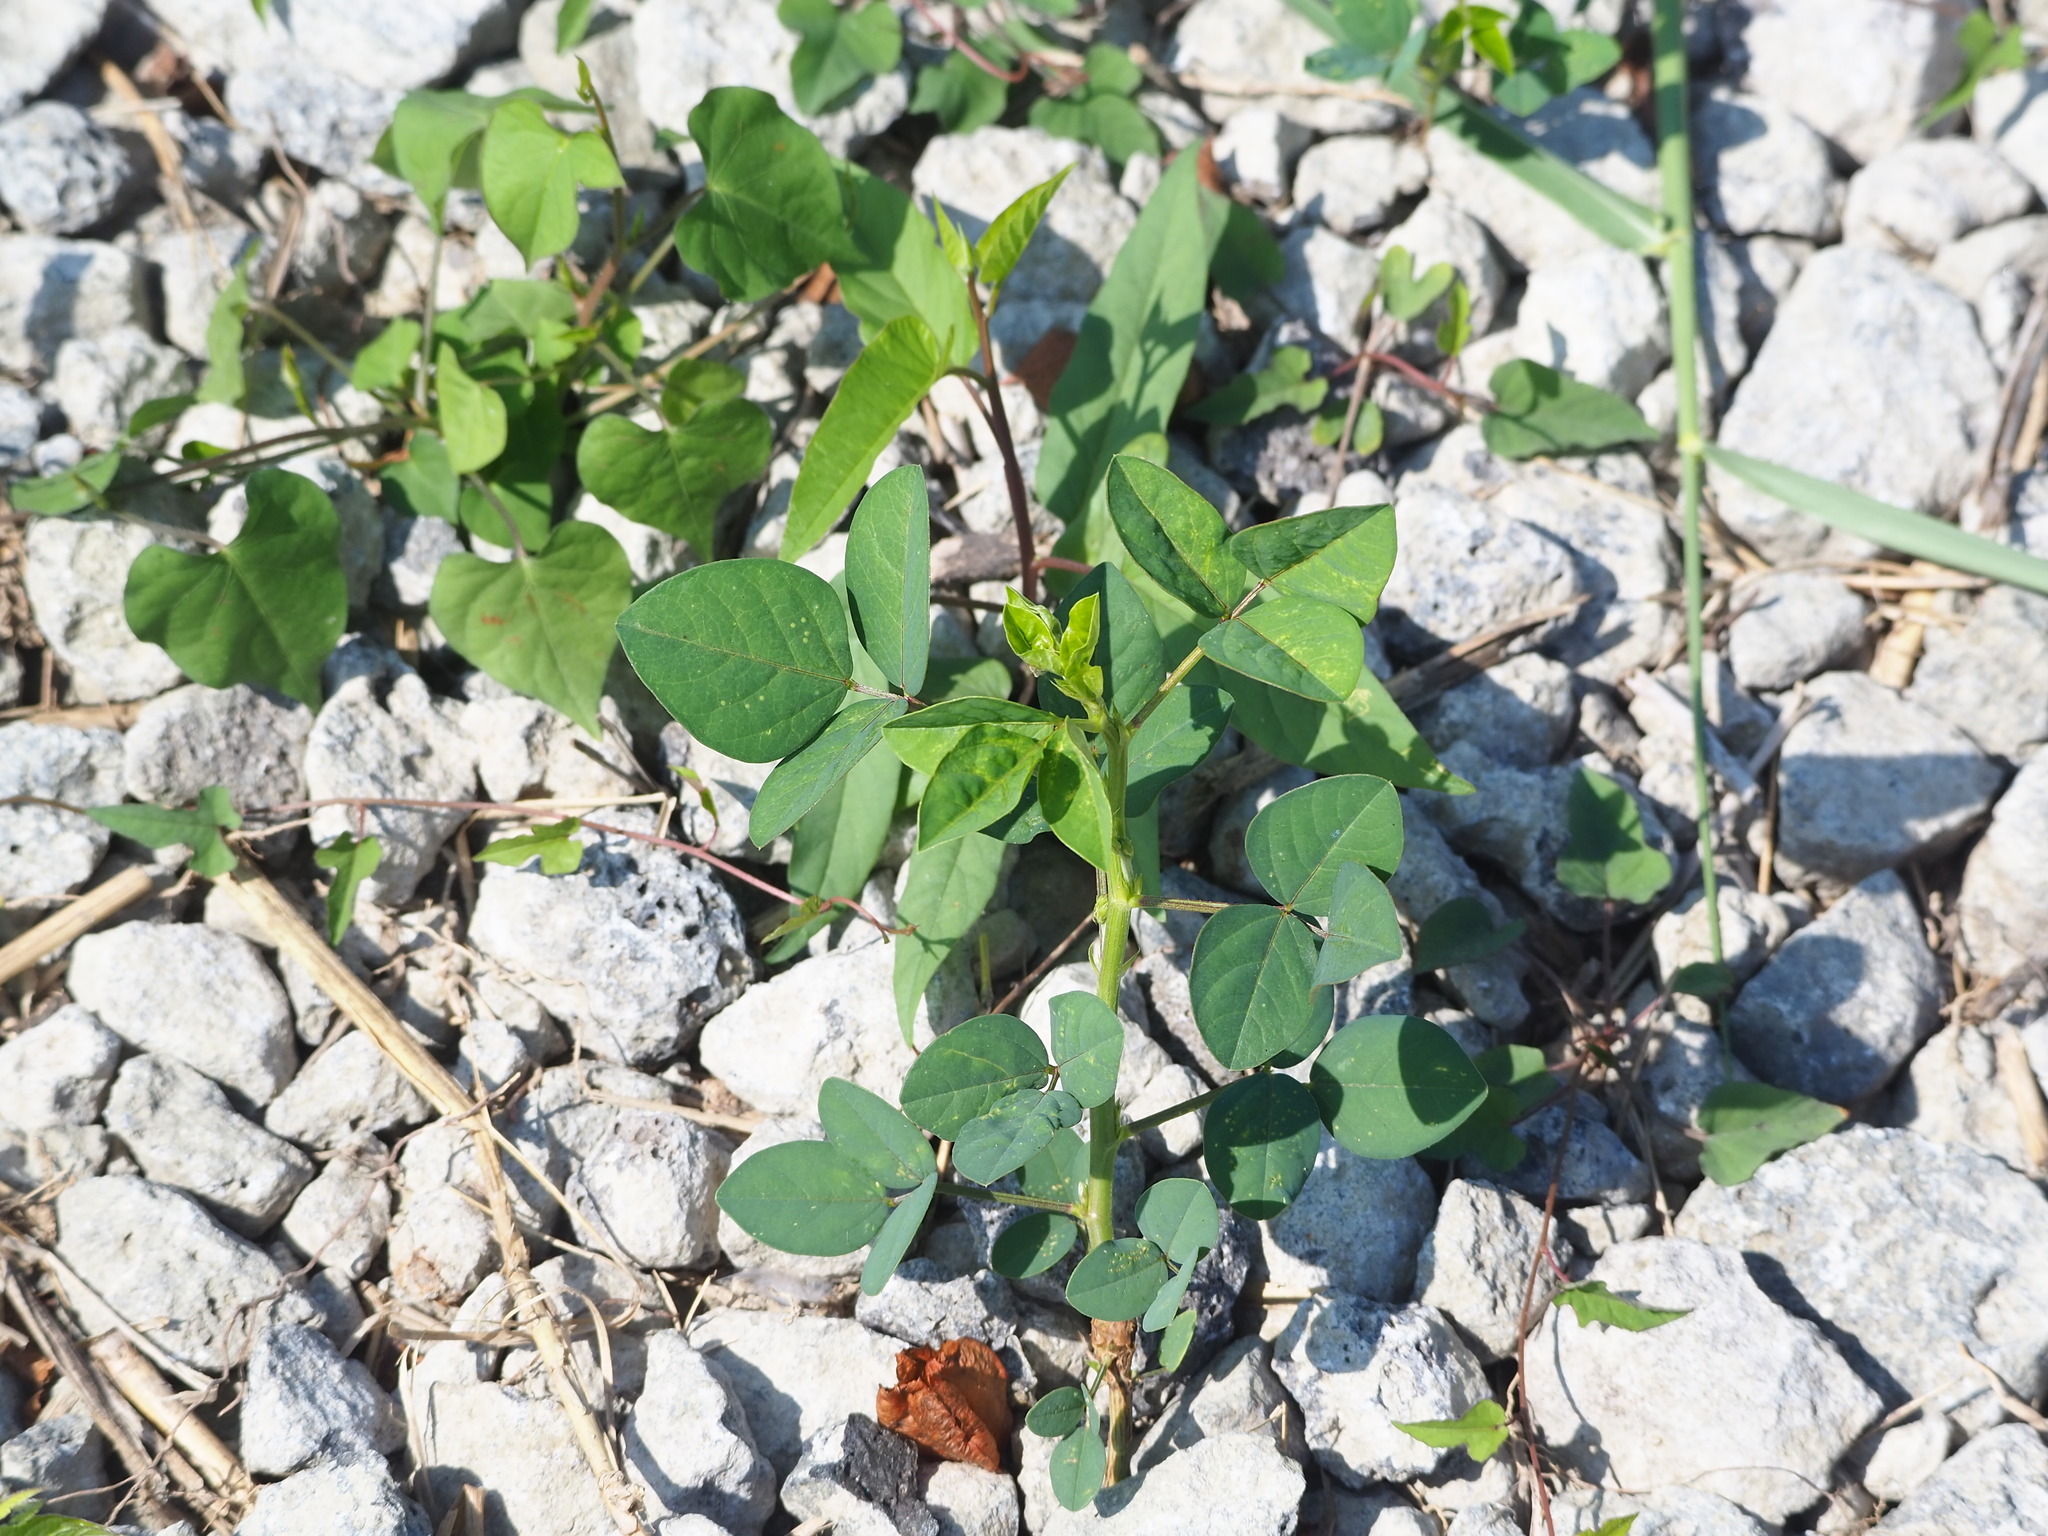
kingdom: Plantae
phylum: Tracheophyta
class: Magnoliopsida
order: Fabales
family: Fabaceae
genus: Macroptilium
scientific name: Macroptilium lathyroides
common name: Wild bushbean
